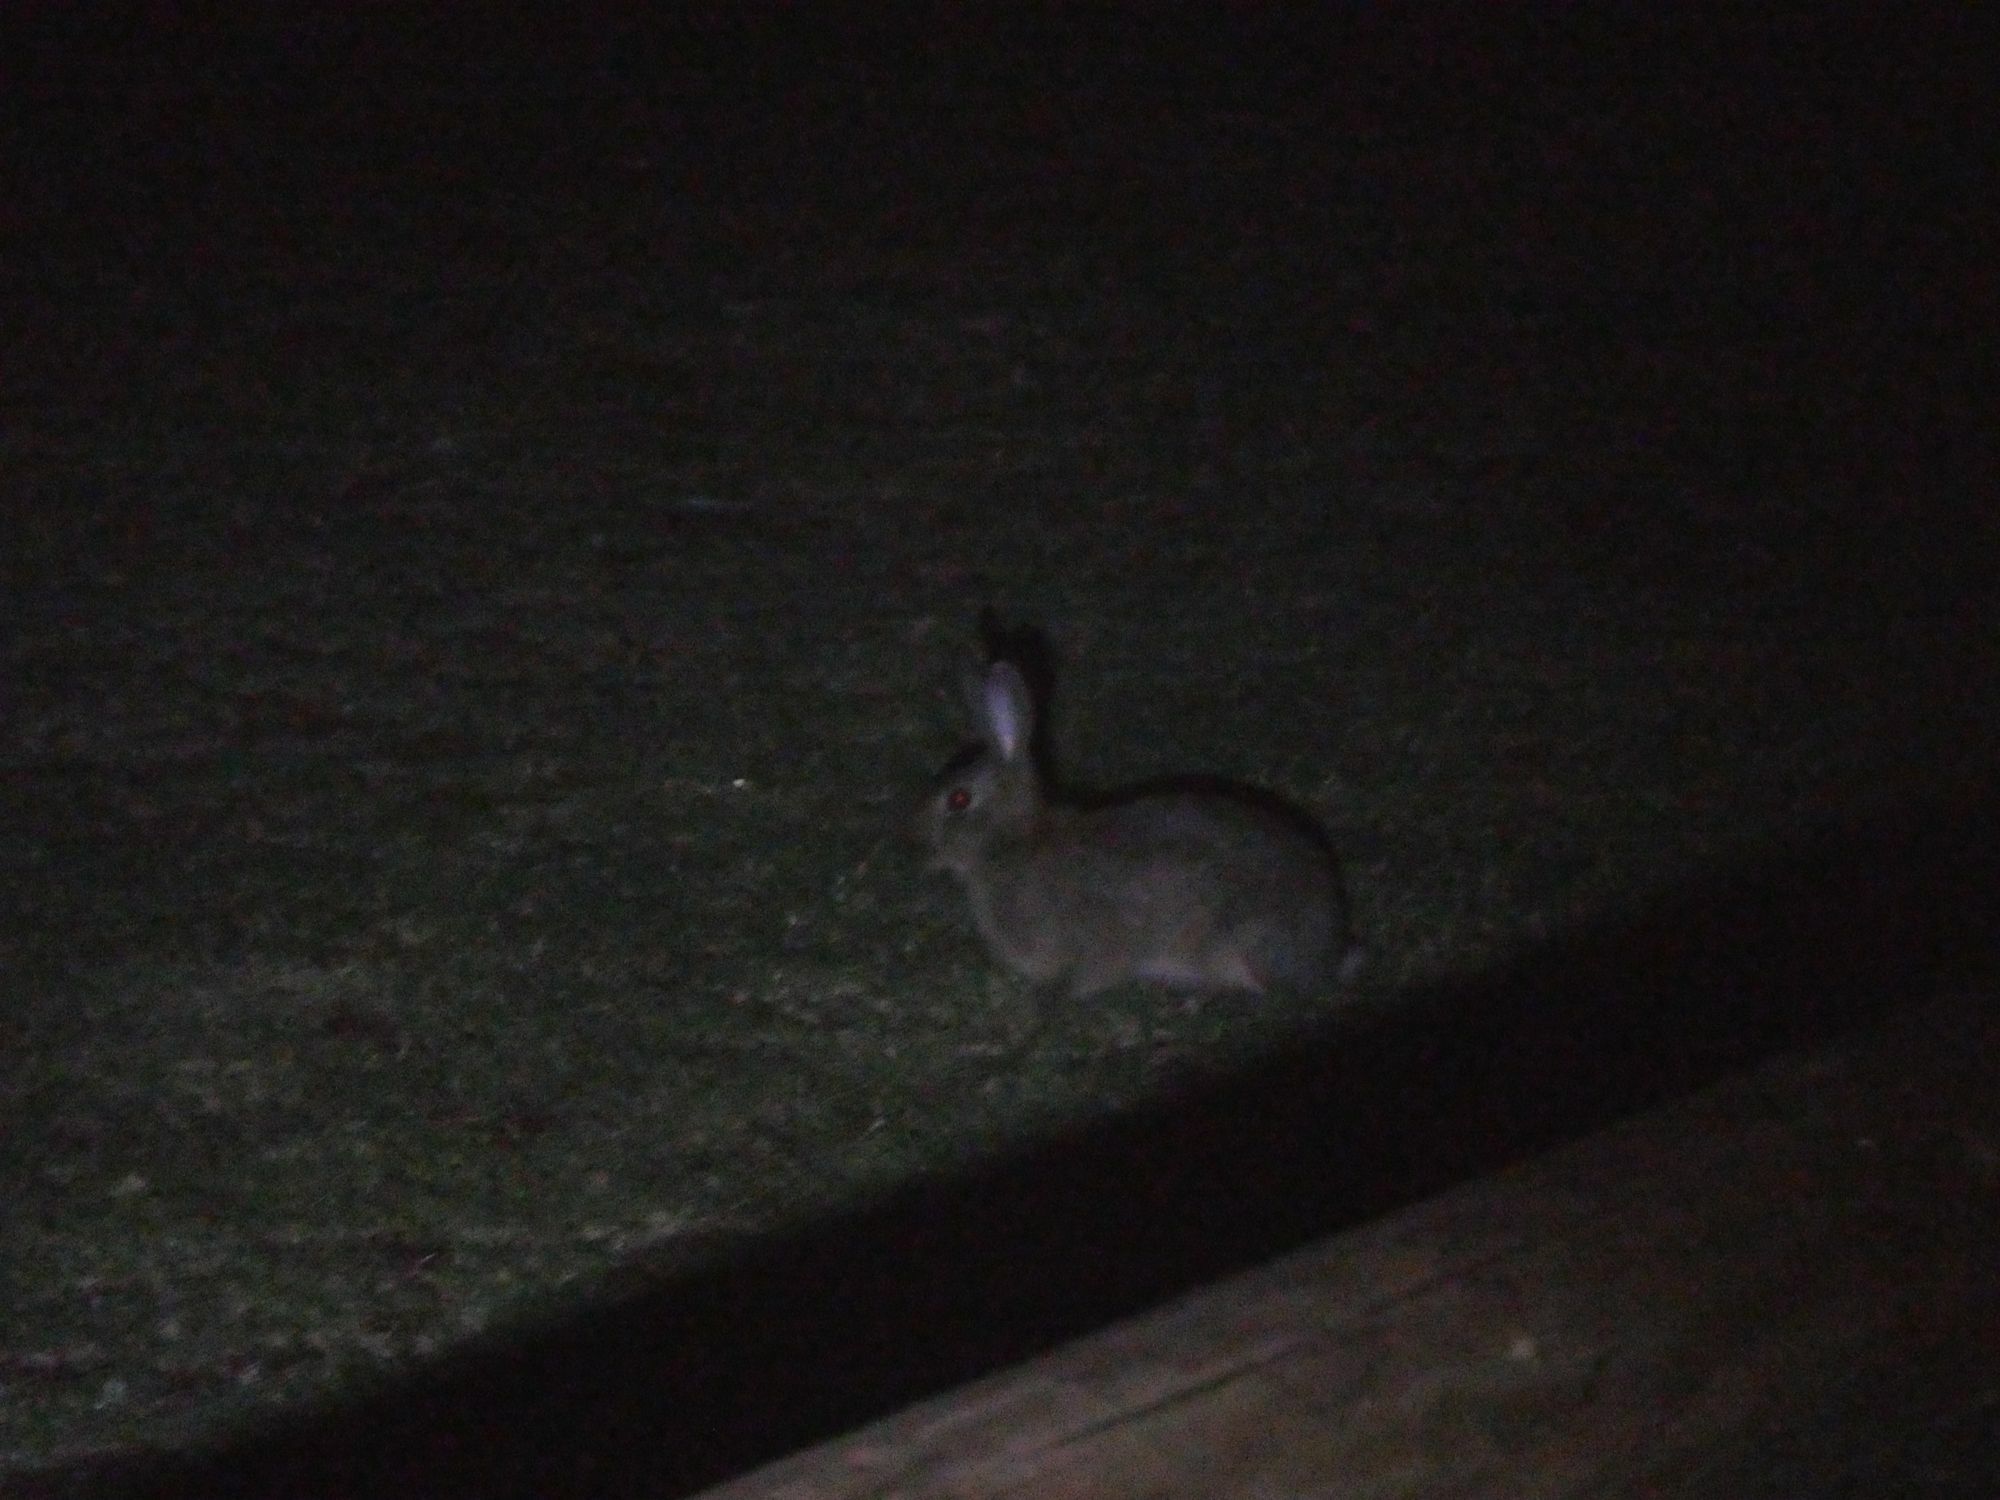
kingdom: Animalia
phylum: Chordata
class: Mammalia
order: Lagomorpha
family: Leporidae
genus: Oryctolagus
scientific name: Oryctolagus cuniculus
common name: European rabbit
